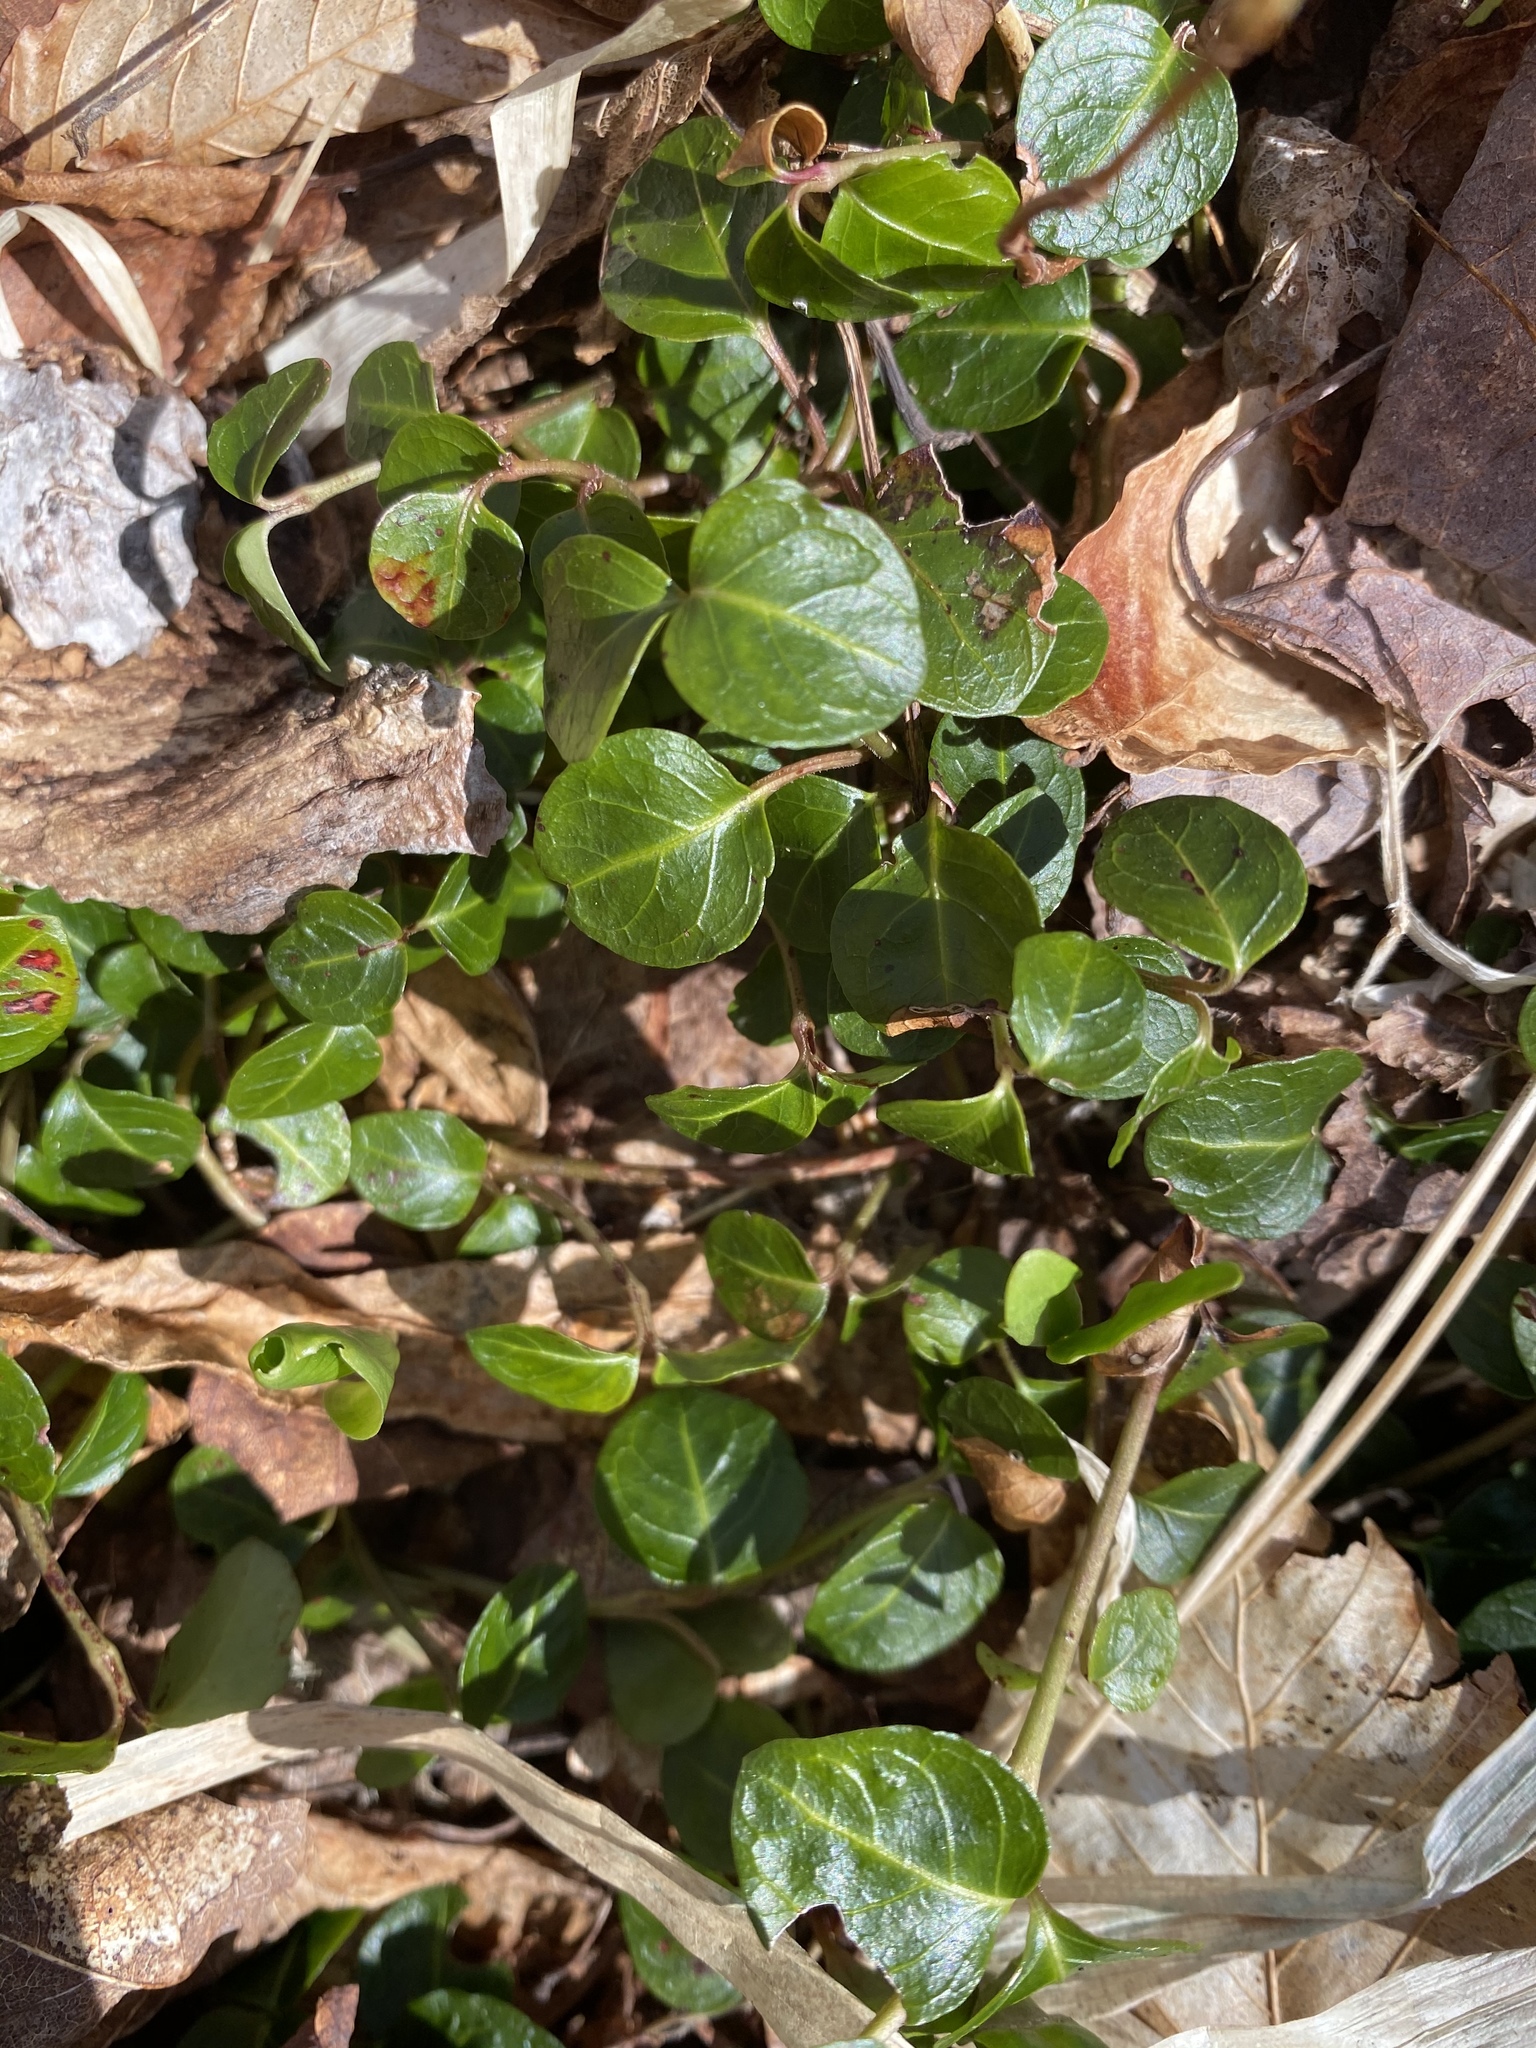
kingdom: Plantae
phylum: Tracheophyta
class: Magnoliopsida
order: Gentianales
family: Rubiaceae
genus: Mitchella
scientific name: Mitchella repens
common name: Partridge-berry
